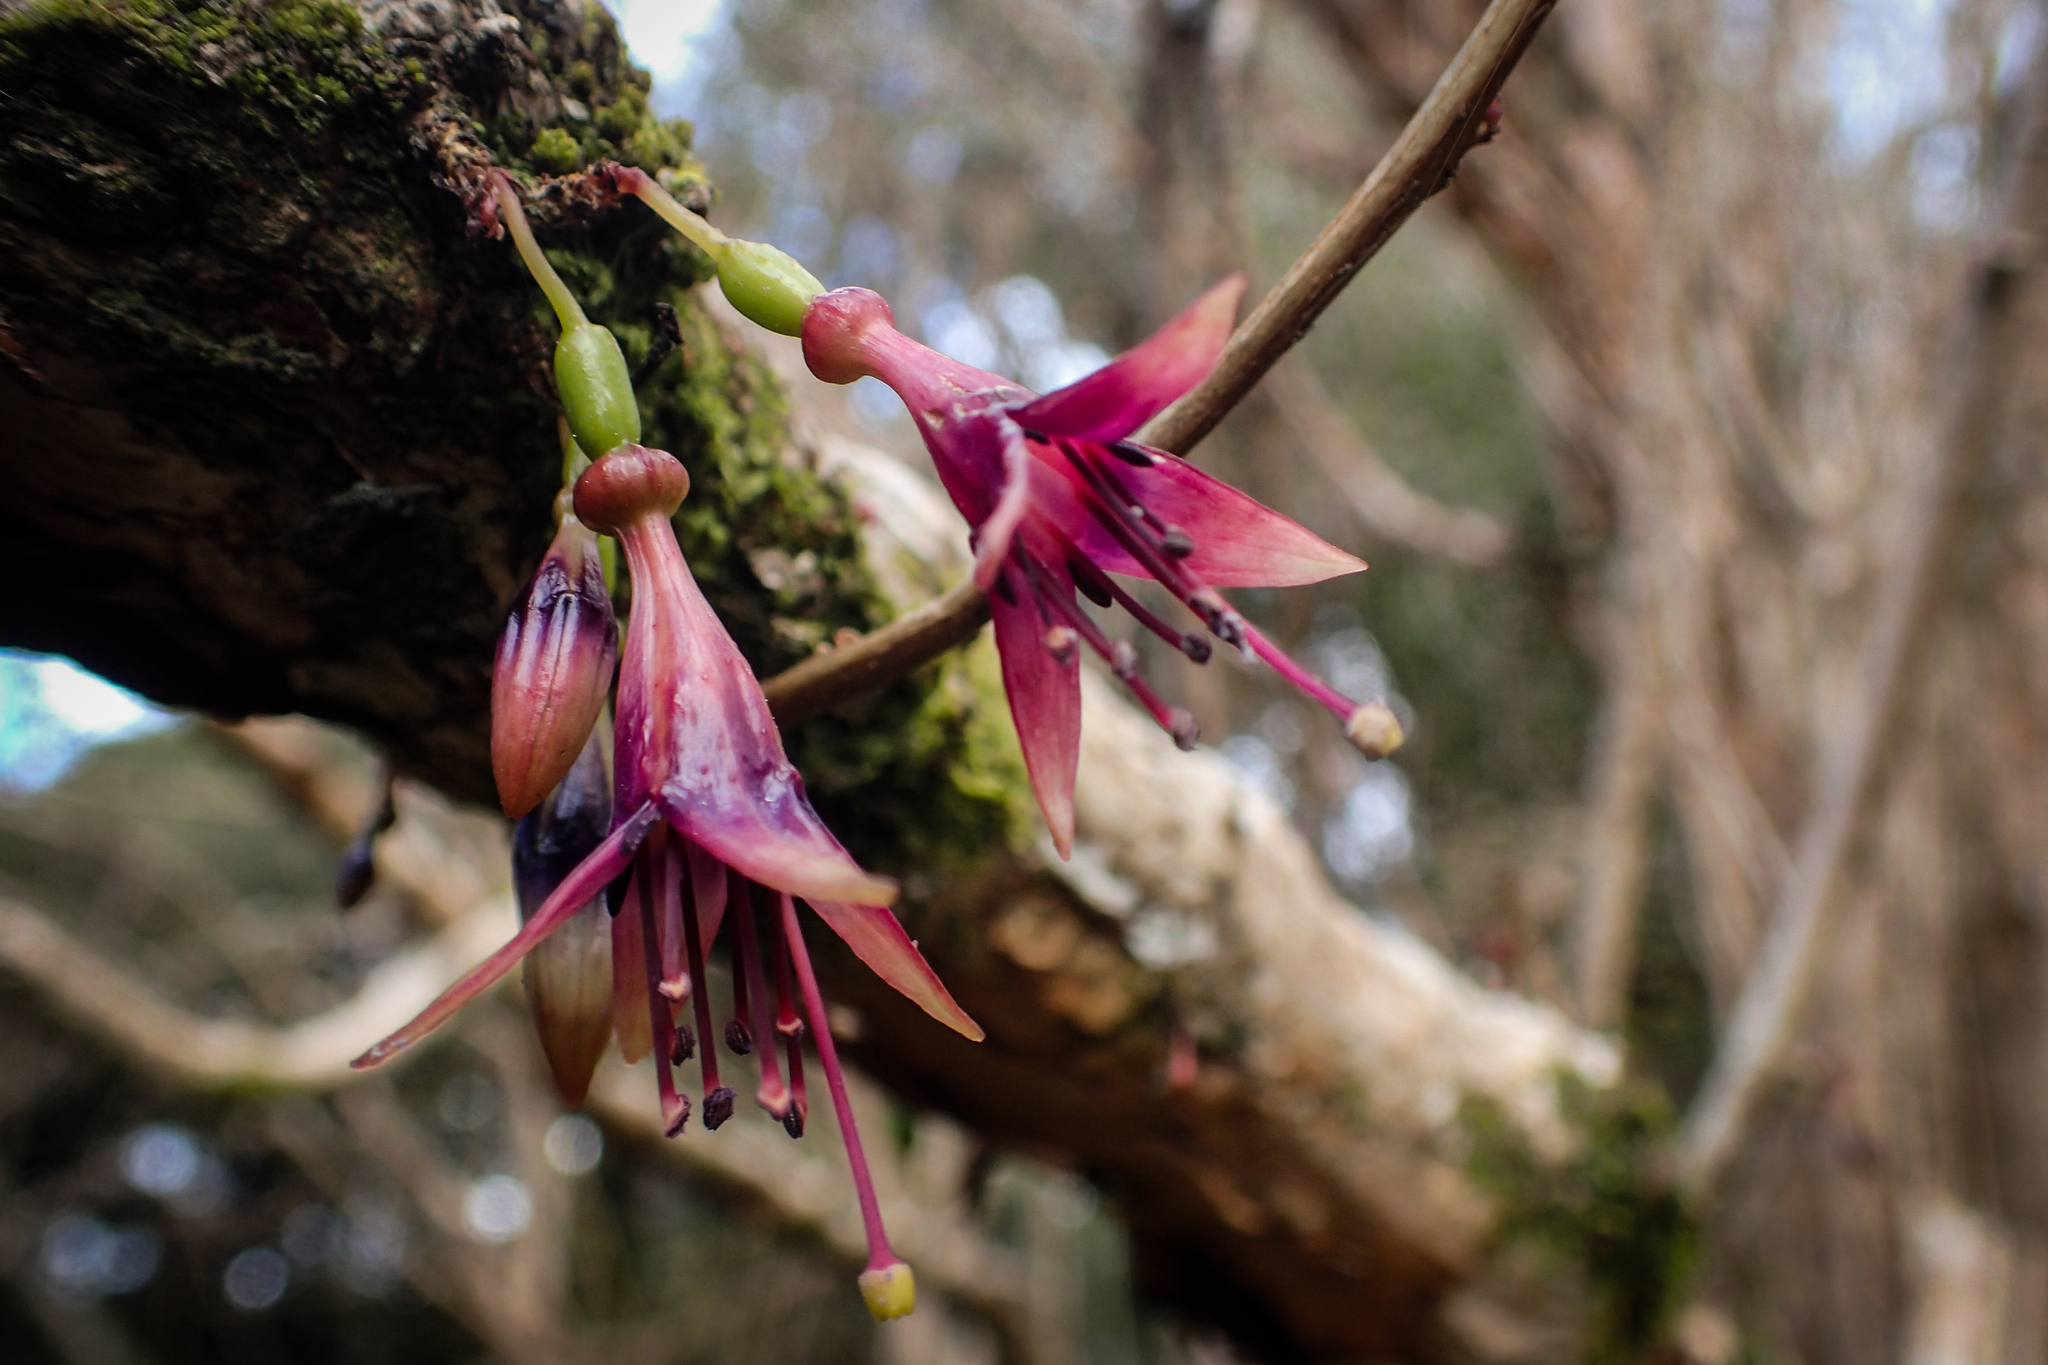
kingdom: Plantae
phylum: Tracheophyta
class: Magnoliopsida
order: Myrtales
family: Onagraceae
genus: Fuchsia
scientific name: Fuchsia excorticata
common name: Tree fuchsia
